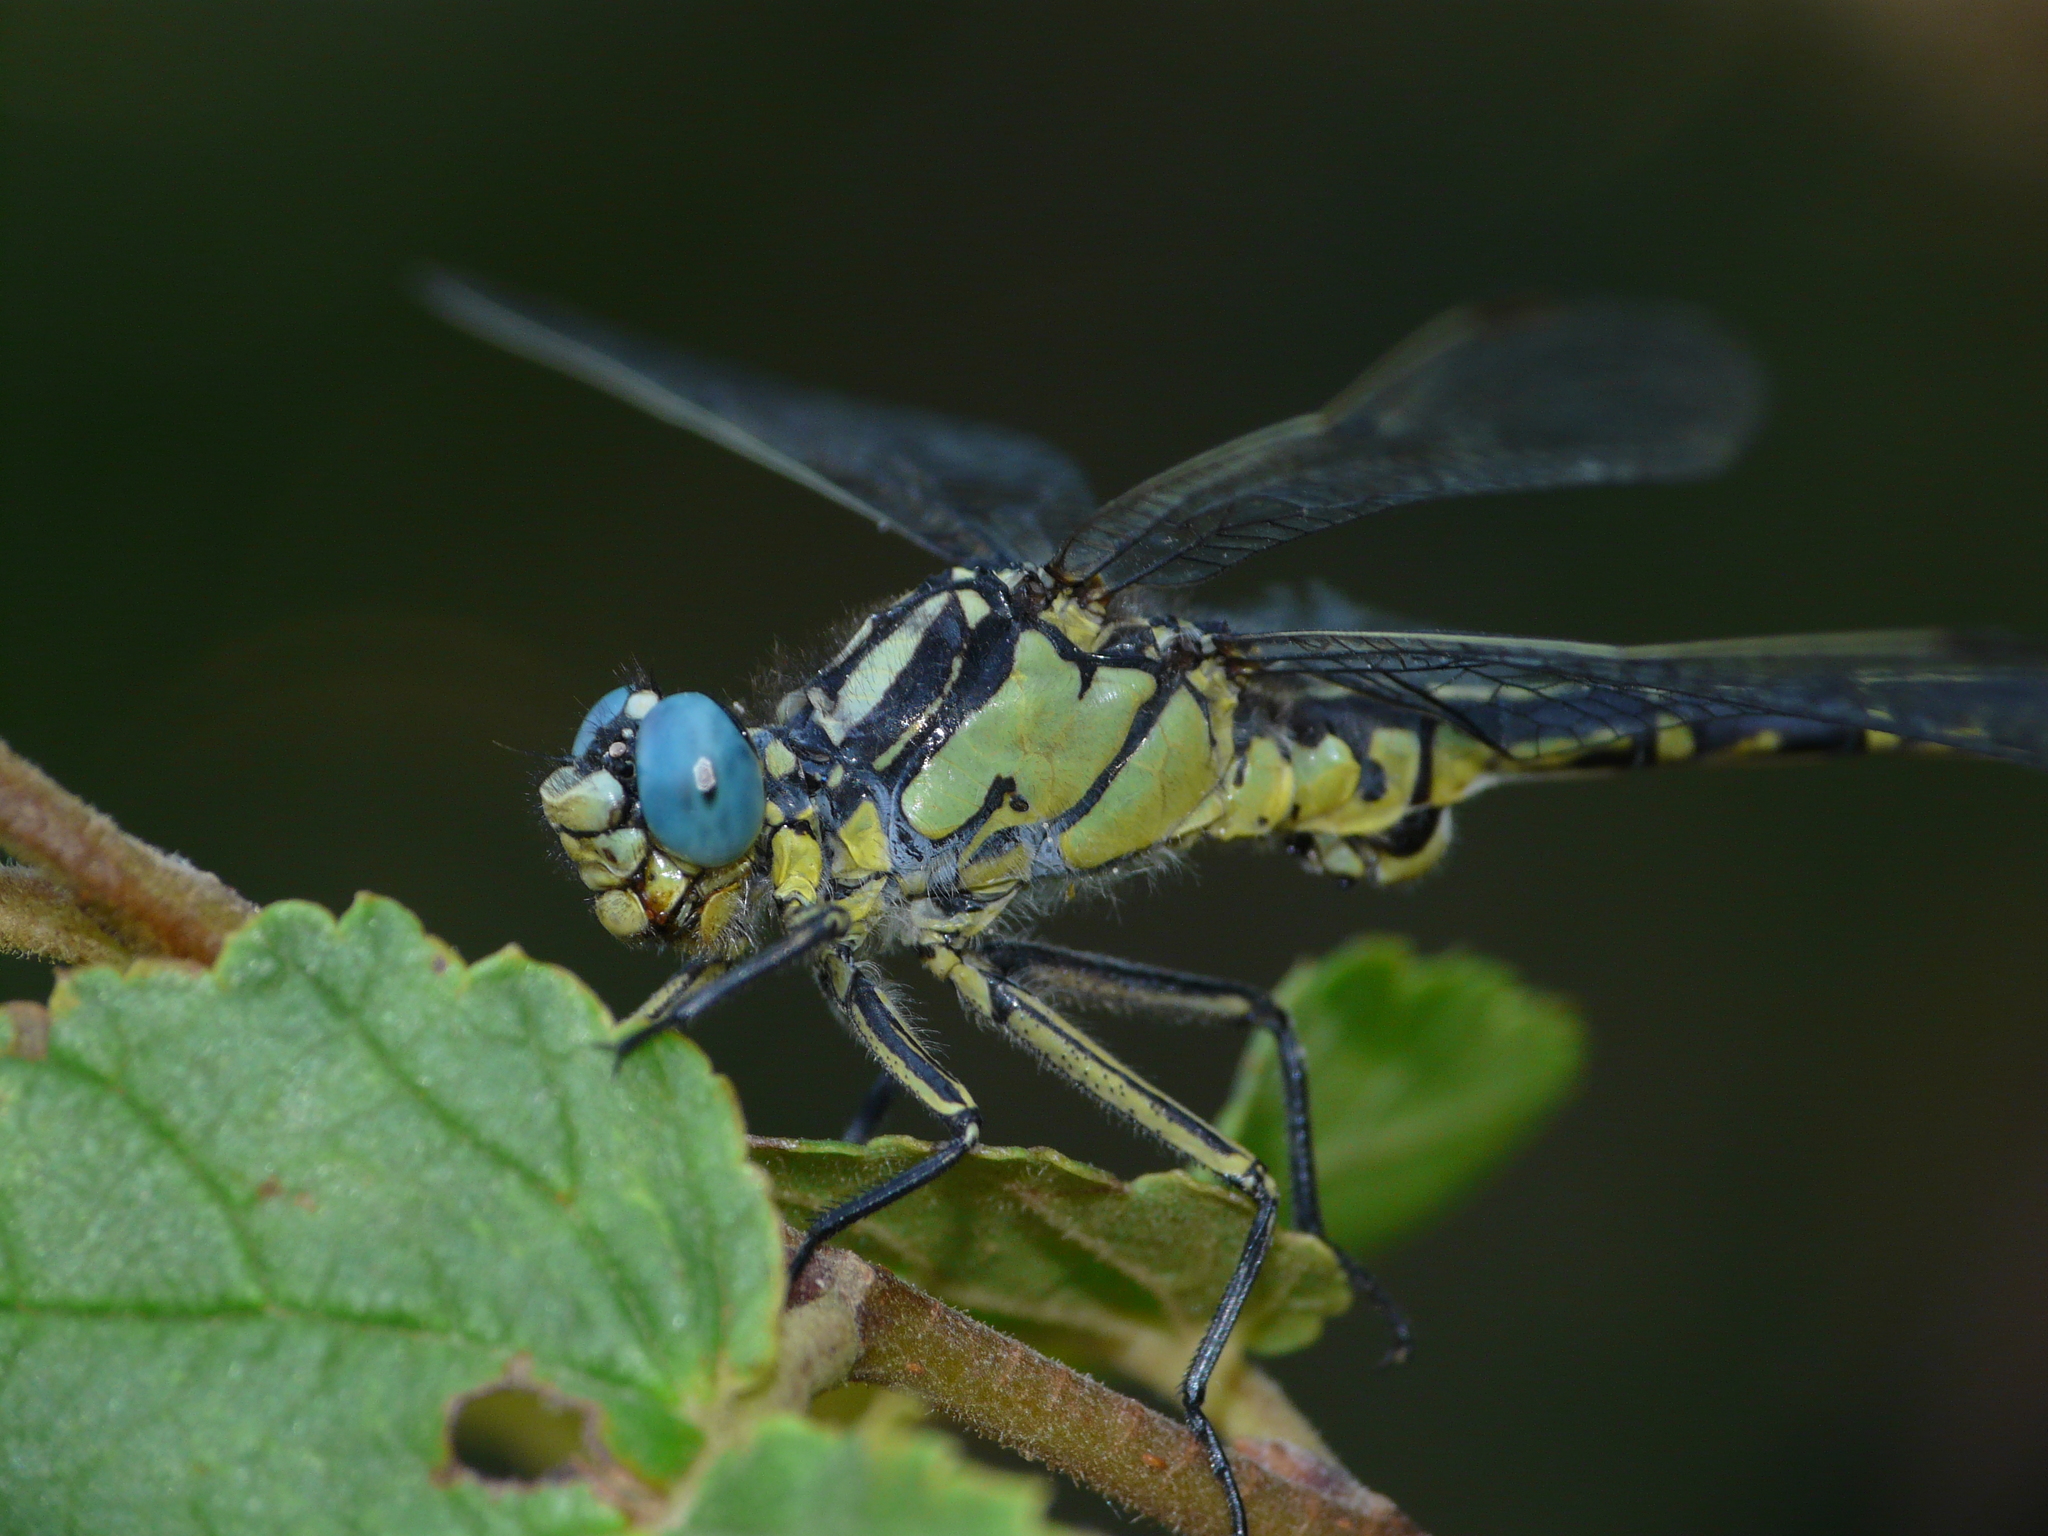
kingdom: Animalia
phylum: Arthropoda
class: Insecta
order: Odonata
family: Gomphidae
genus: Gomphus
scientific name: Gomphus graslinii
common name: Pronged clubtail
